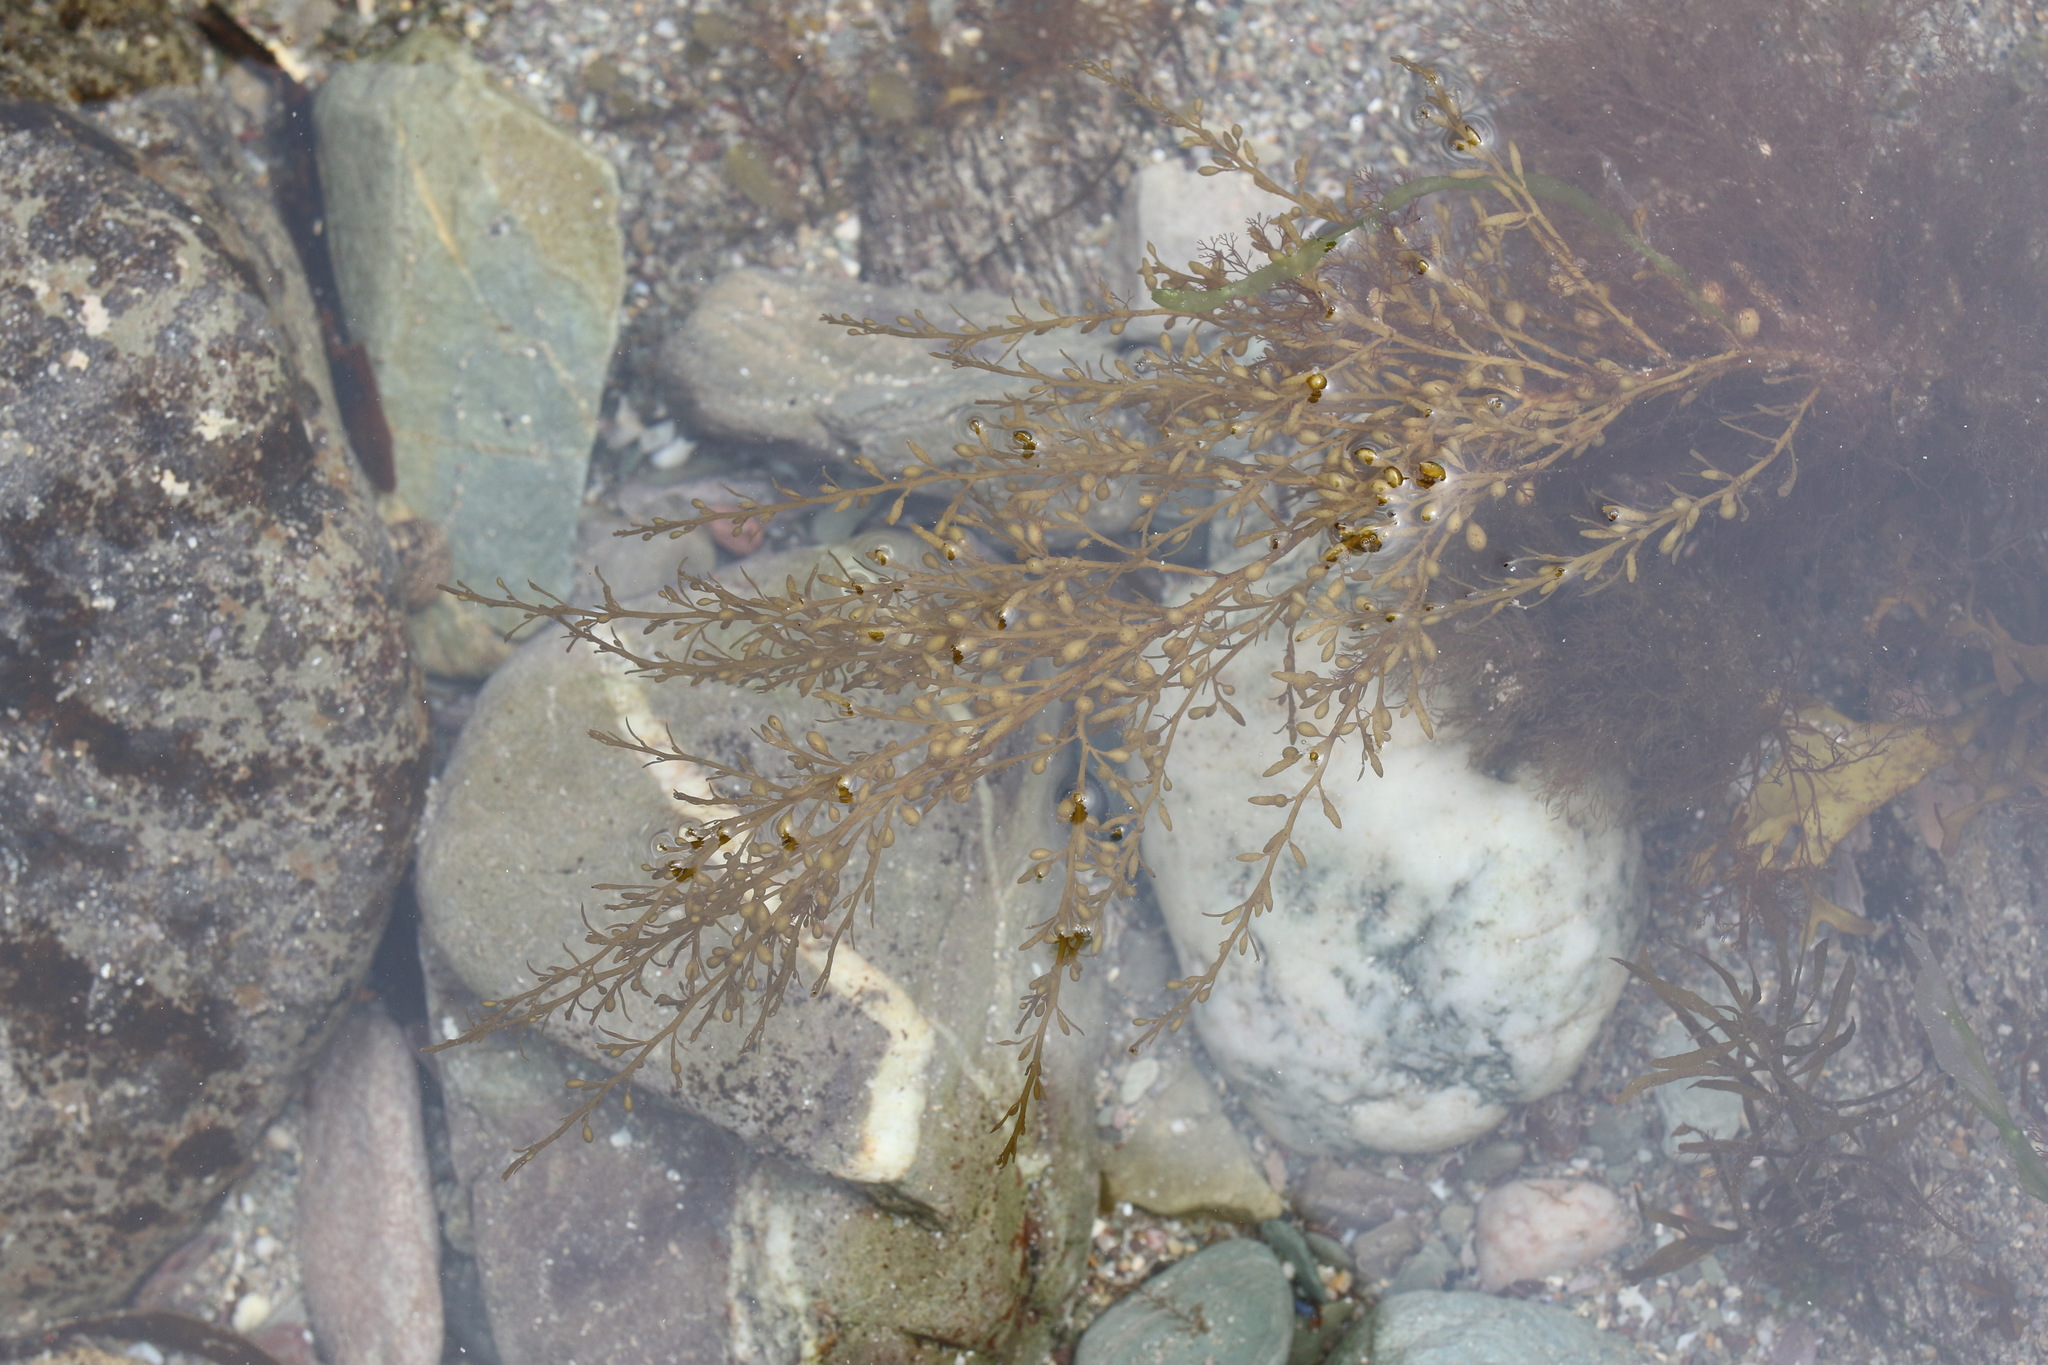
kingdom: Chromista
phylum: Ochrophyta
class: Phaeophyceae
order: Fucales
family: Sargassaceae
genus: Sargassum
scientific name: Sargassum muticum
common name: Japweed
